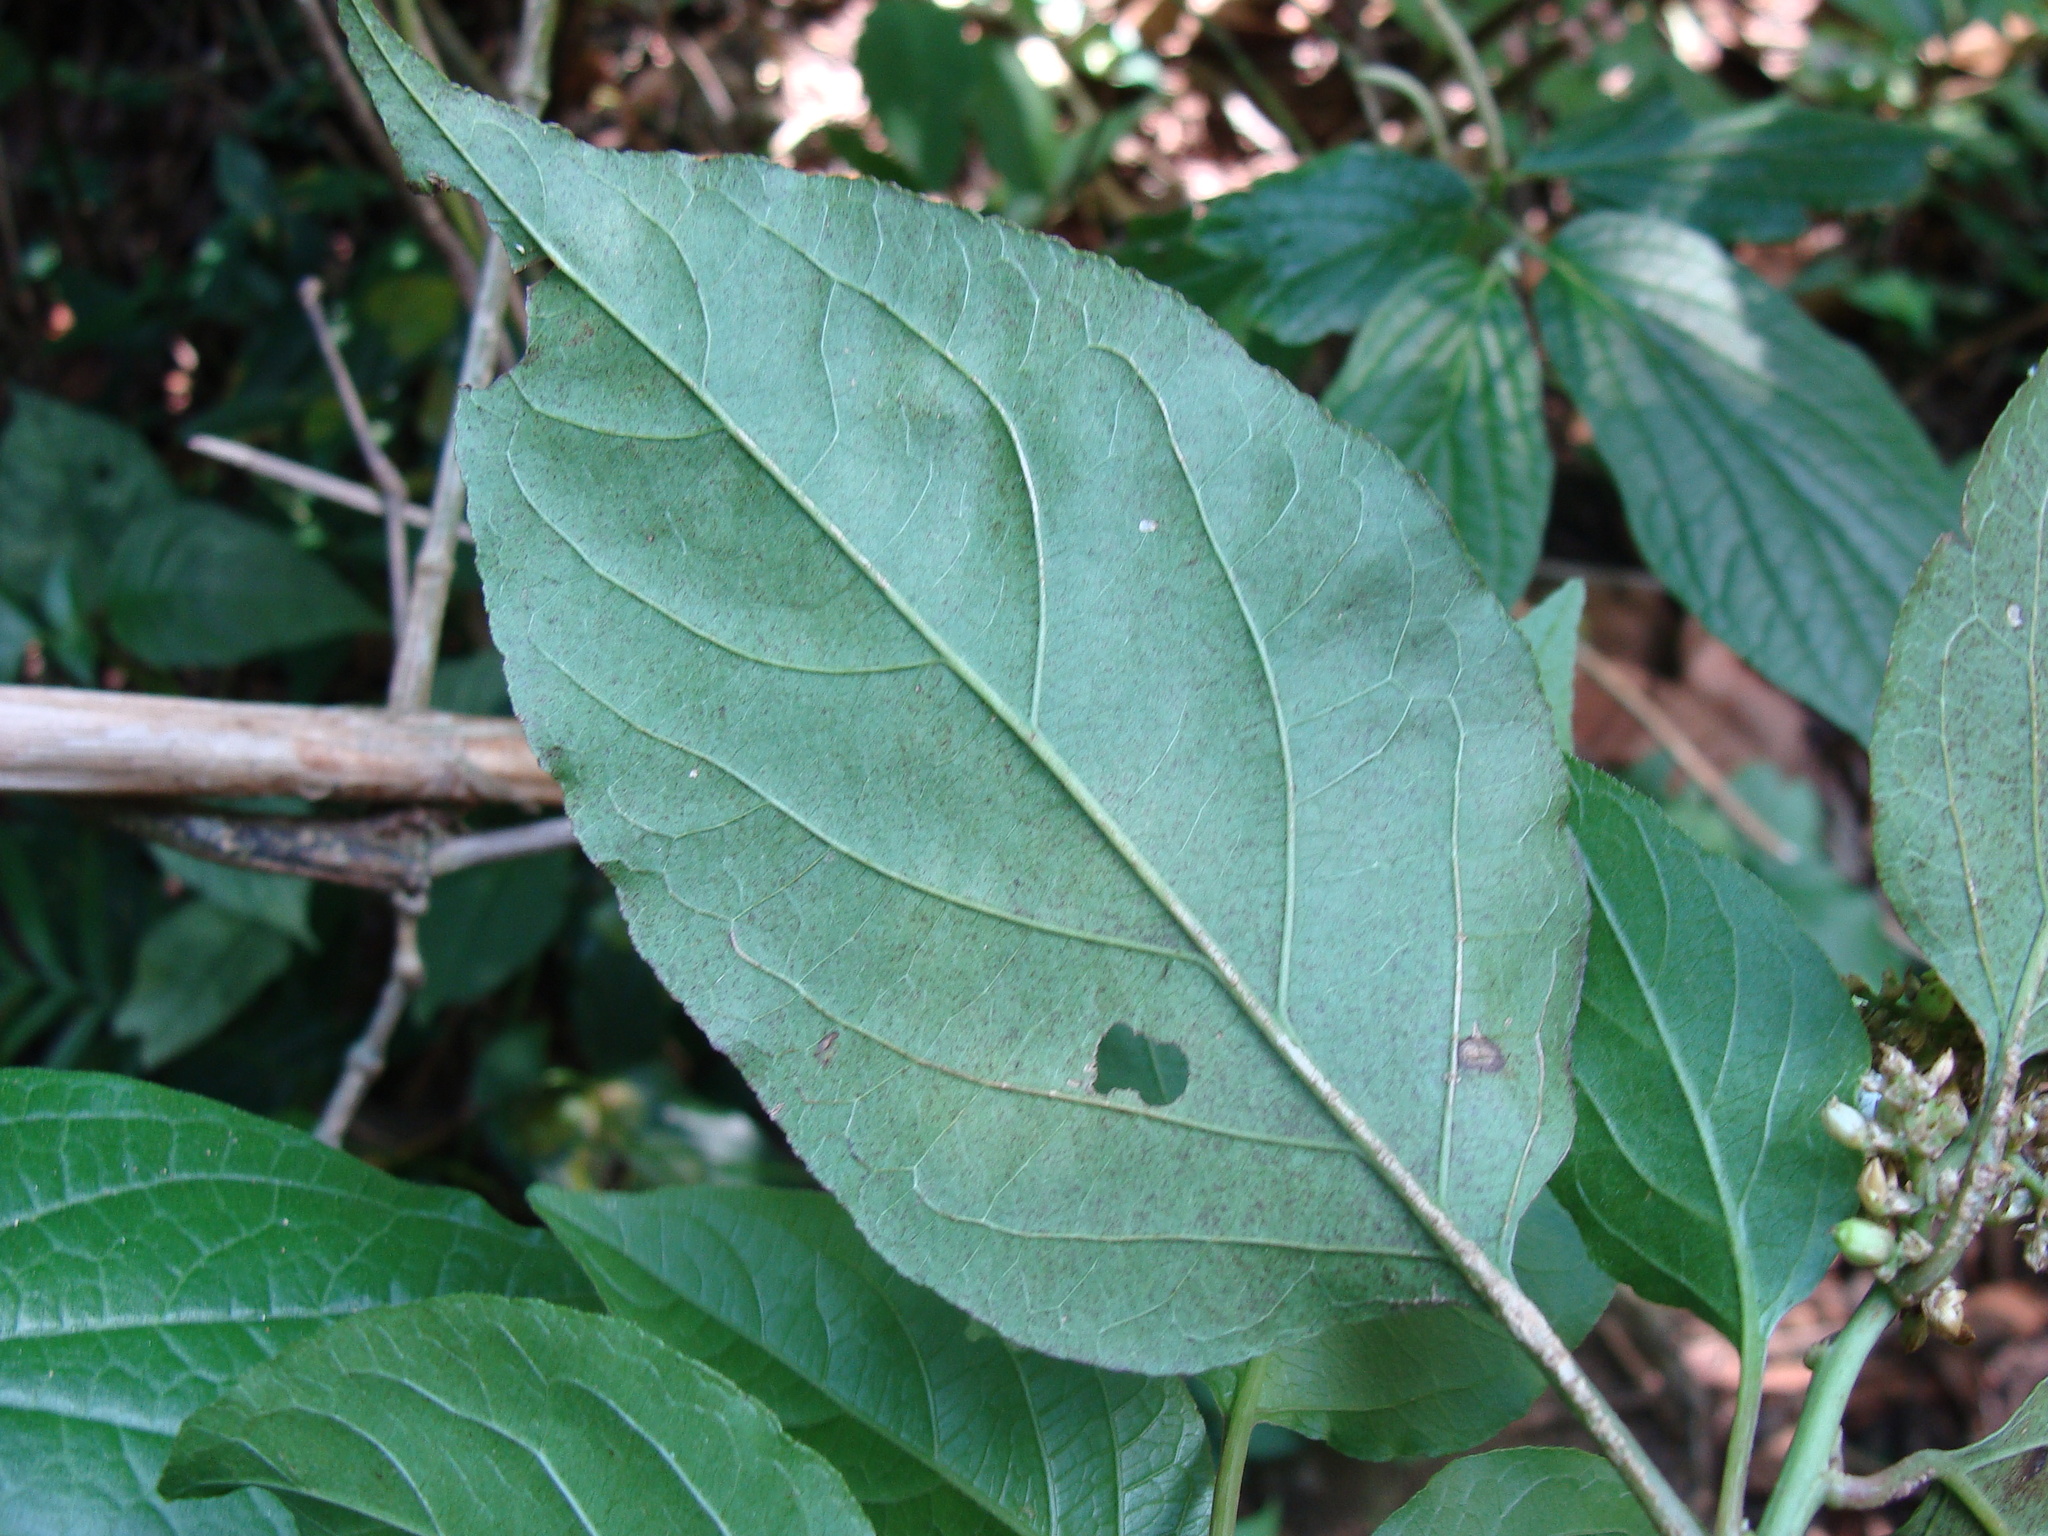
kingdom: Plantae
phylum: Tracheophyta
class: Magnoliopsida
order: Caryophyllales
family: Amaranthaceae
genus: Chamissoa
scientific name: Chamissoa altissima
